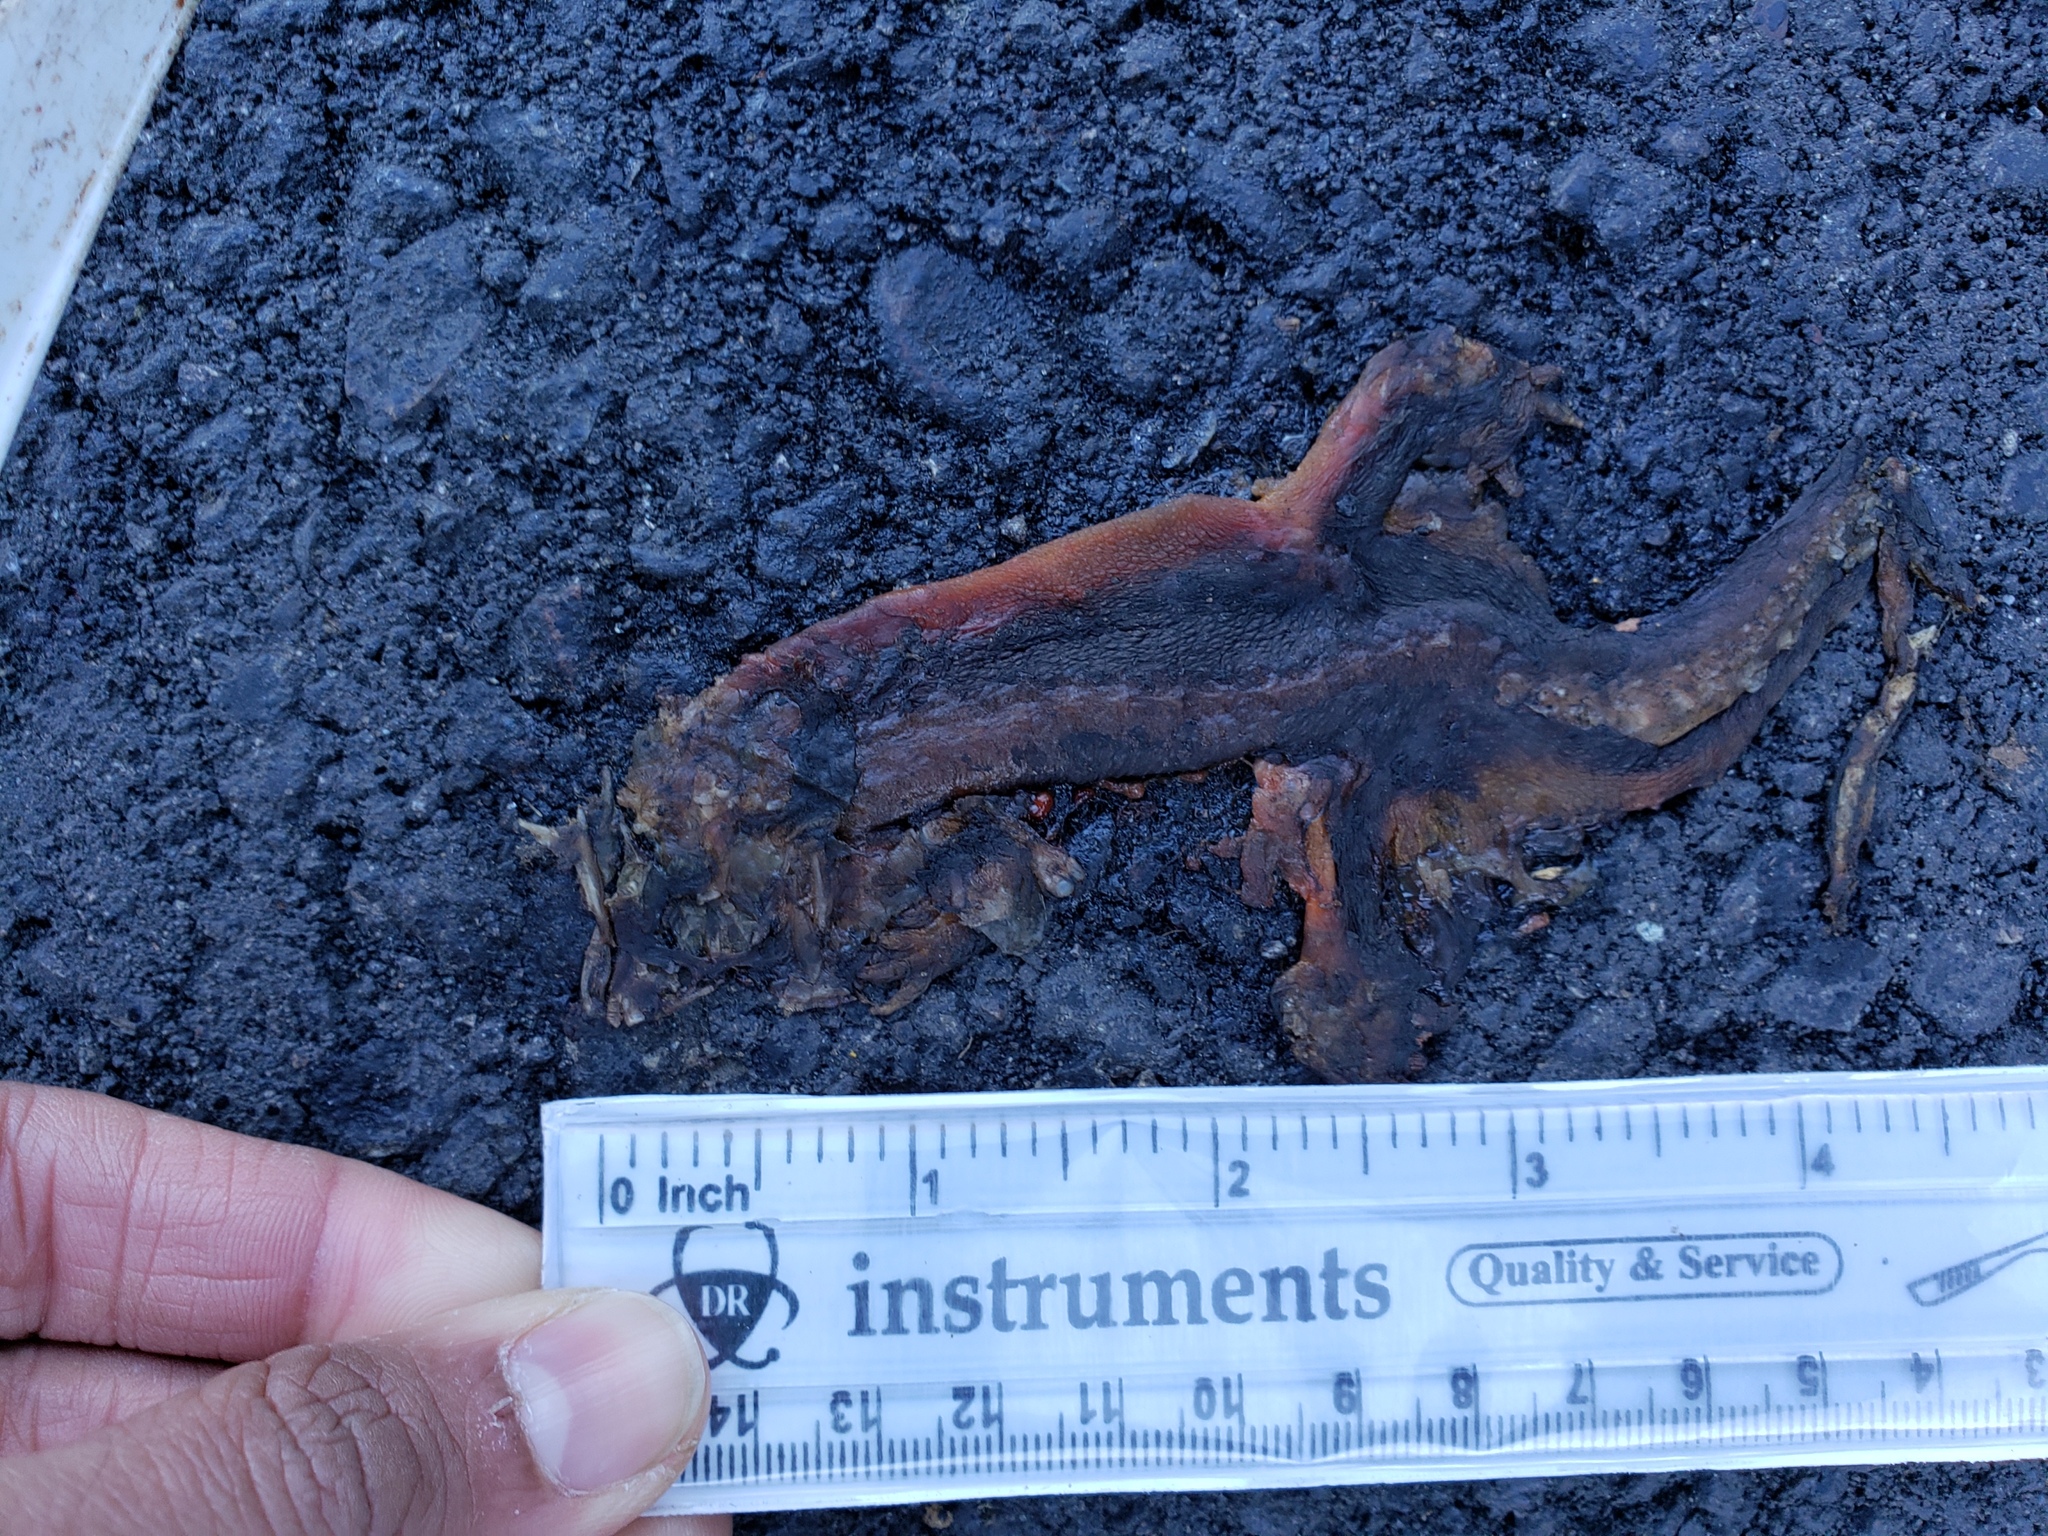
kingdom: Animalia
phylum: Chordata
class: Amphibia
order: Caudata
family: Salamandridae
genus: Taricha
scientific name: Taricha
